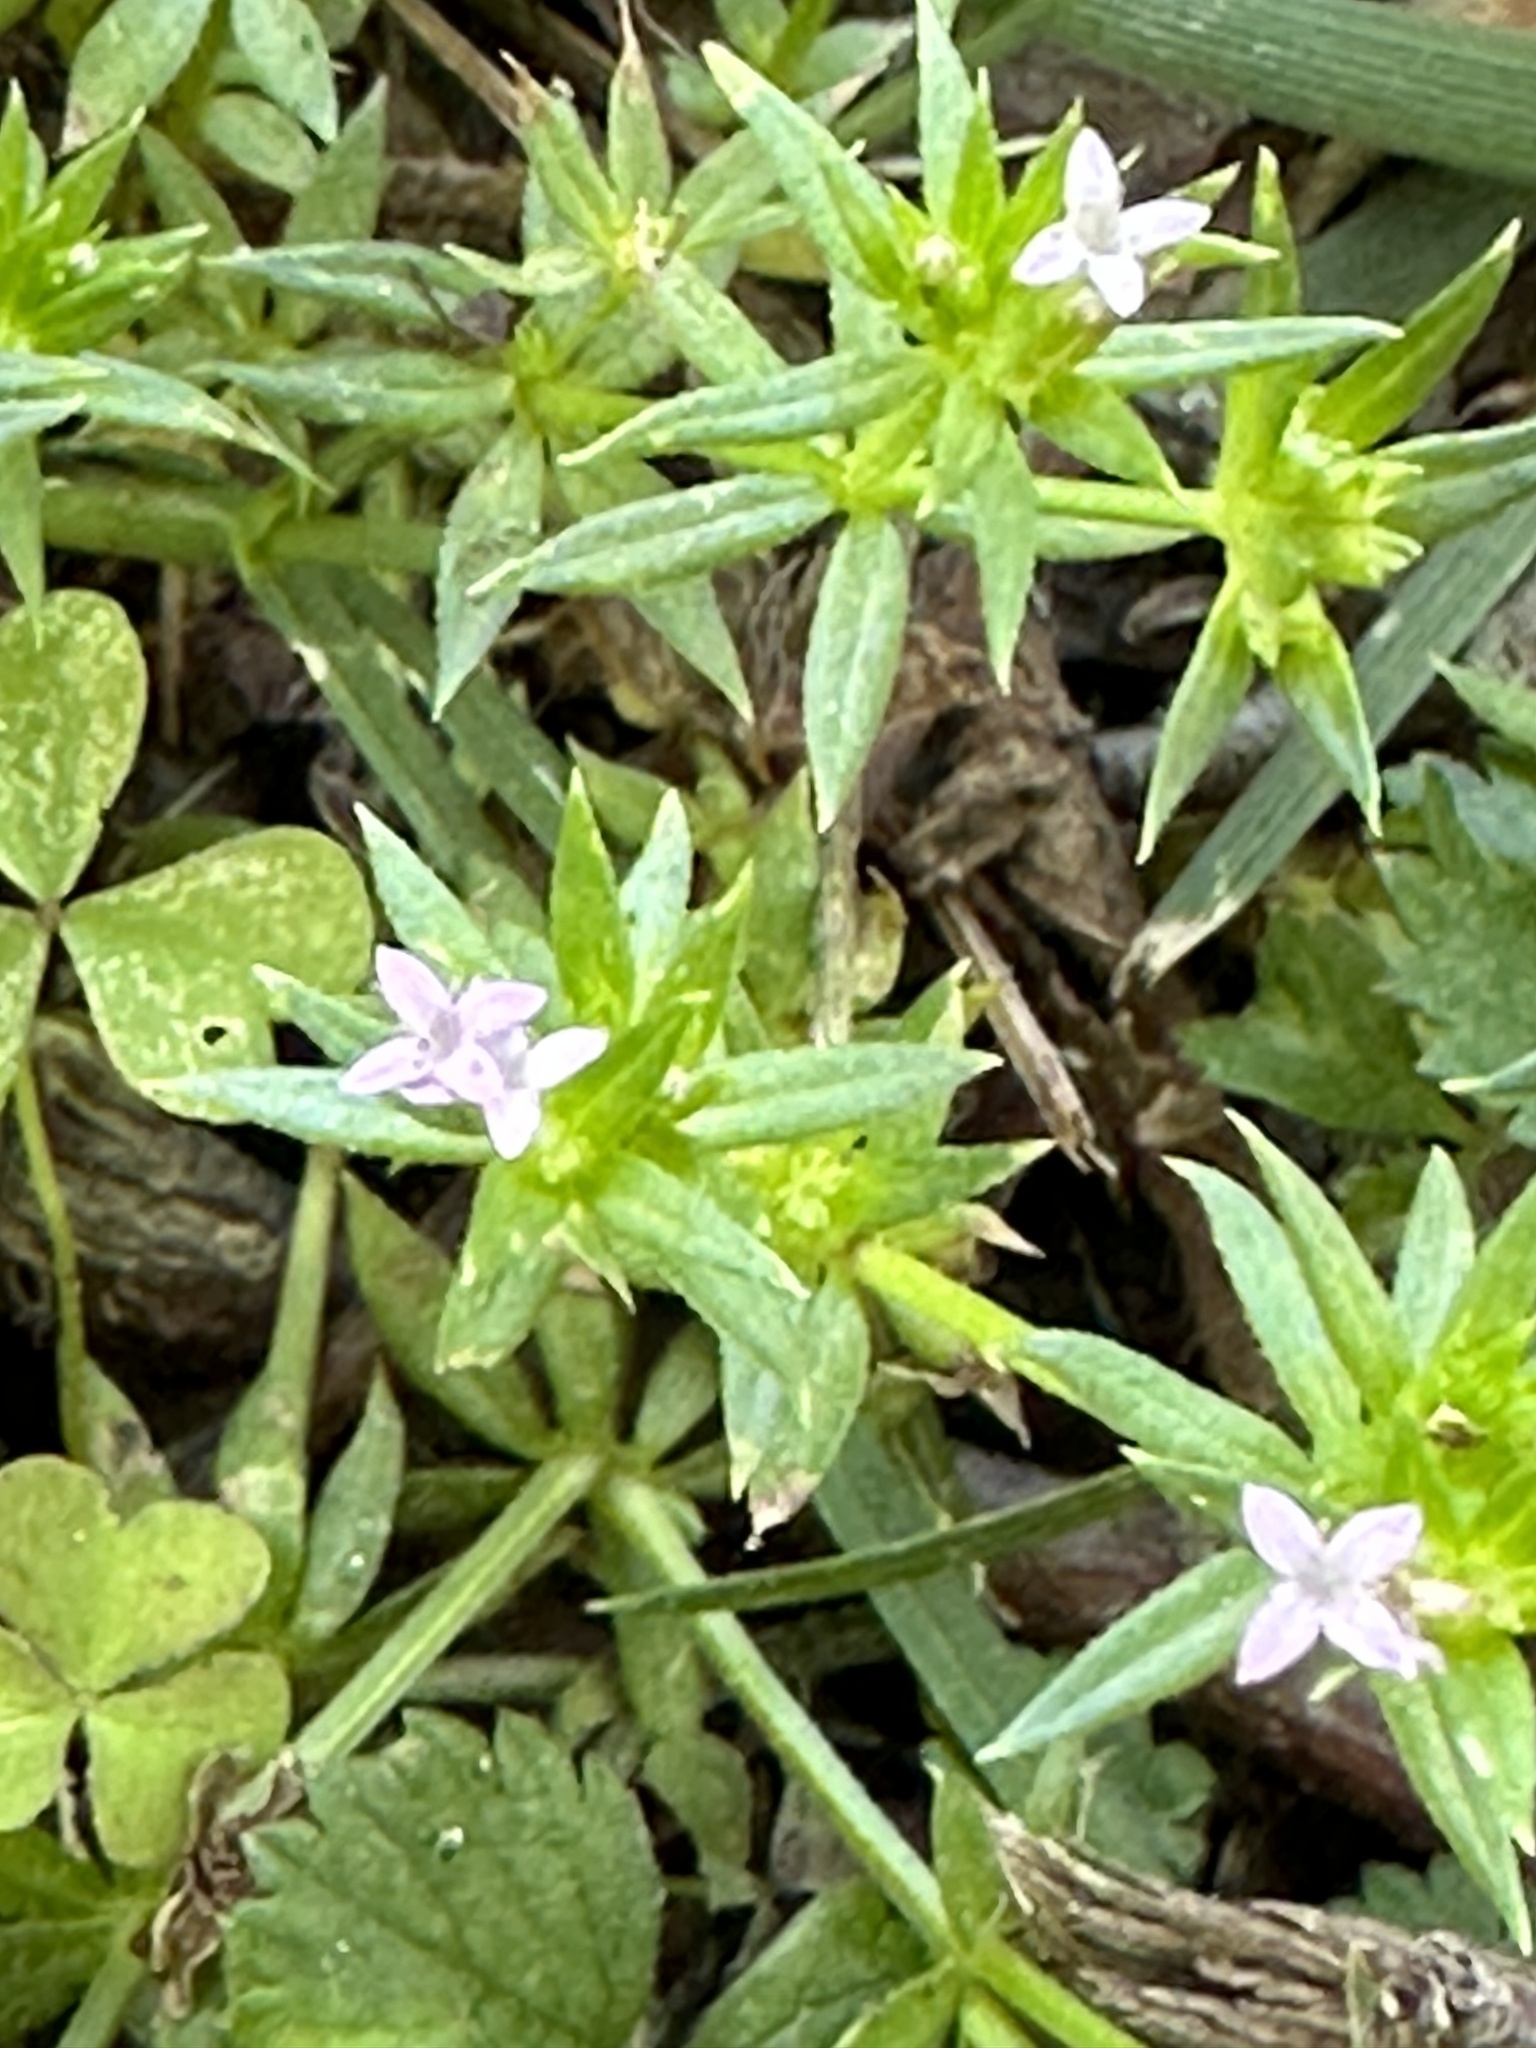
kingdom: Plantae
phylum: Tracheophyta
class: Magnoliopsida
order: Gentianales
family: Rubiaceae
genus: Sherardia
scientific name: Sherardia arvensis
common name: Field madder
